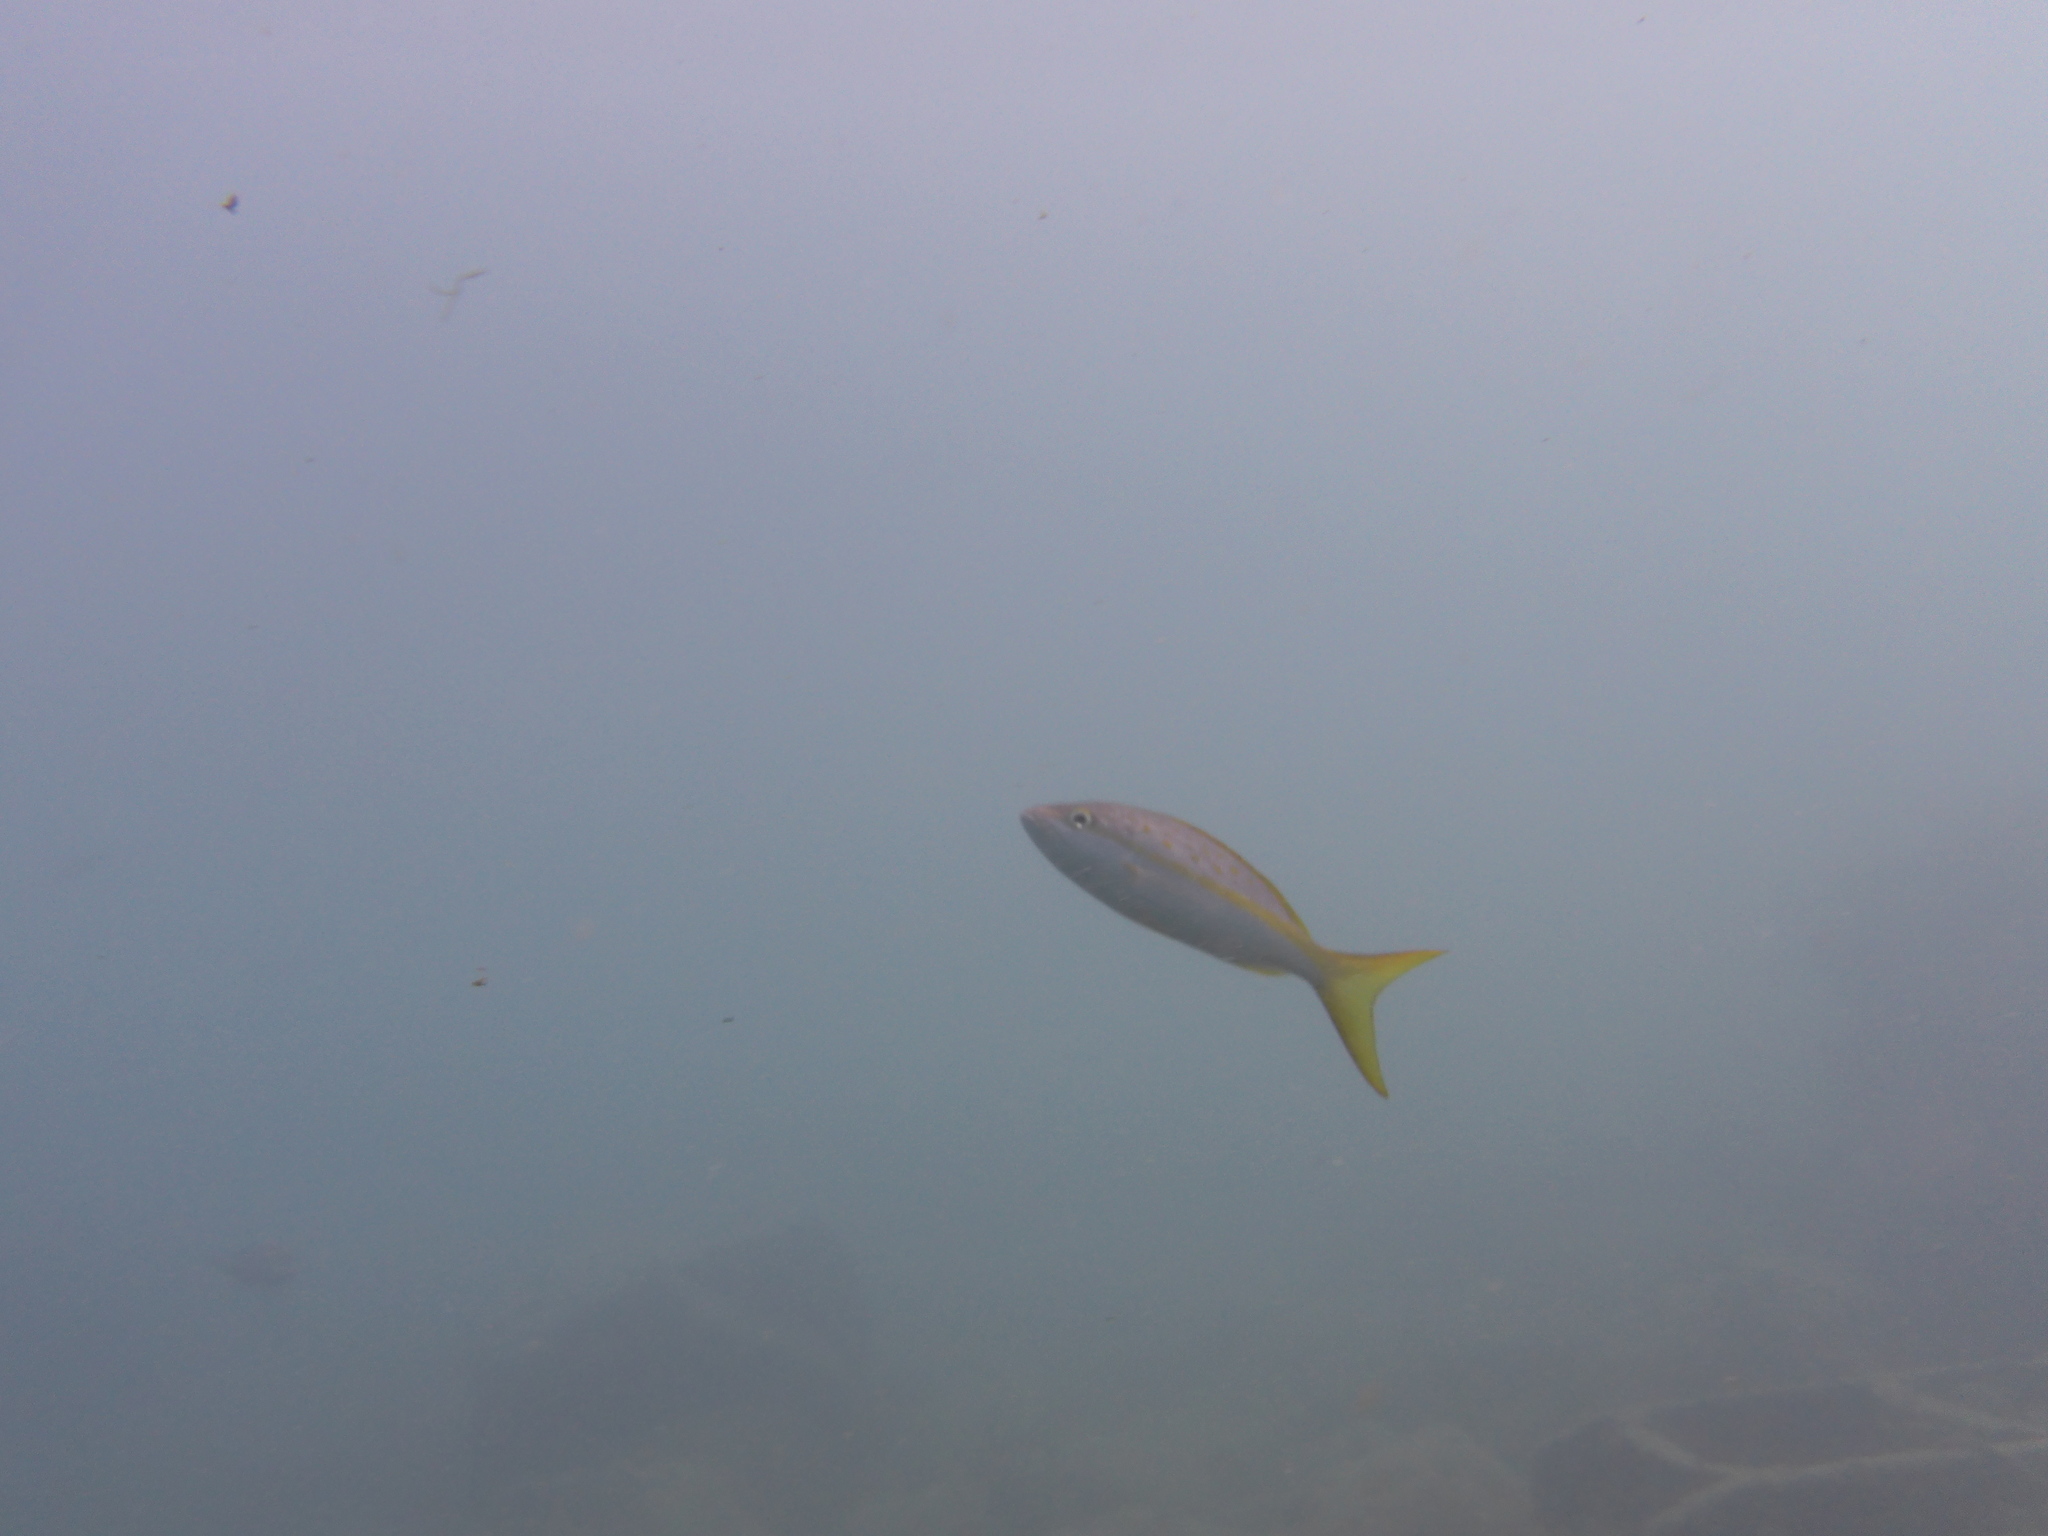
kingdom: Animalia
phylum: Chordata
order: Perciformes
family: Lutjanidae
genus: Ocyurus
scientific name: Ocyurus chrysurus
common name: Yellowtail snapper
